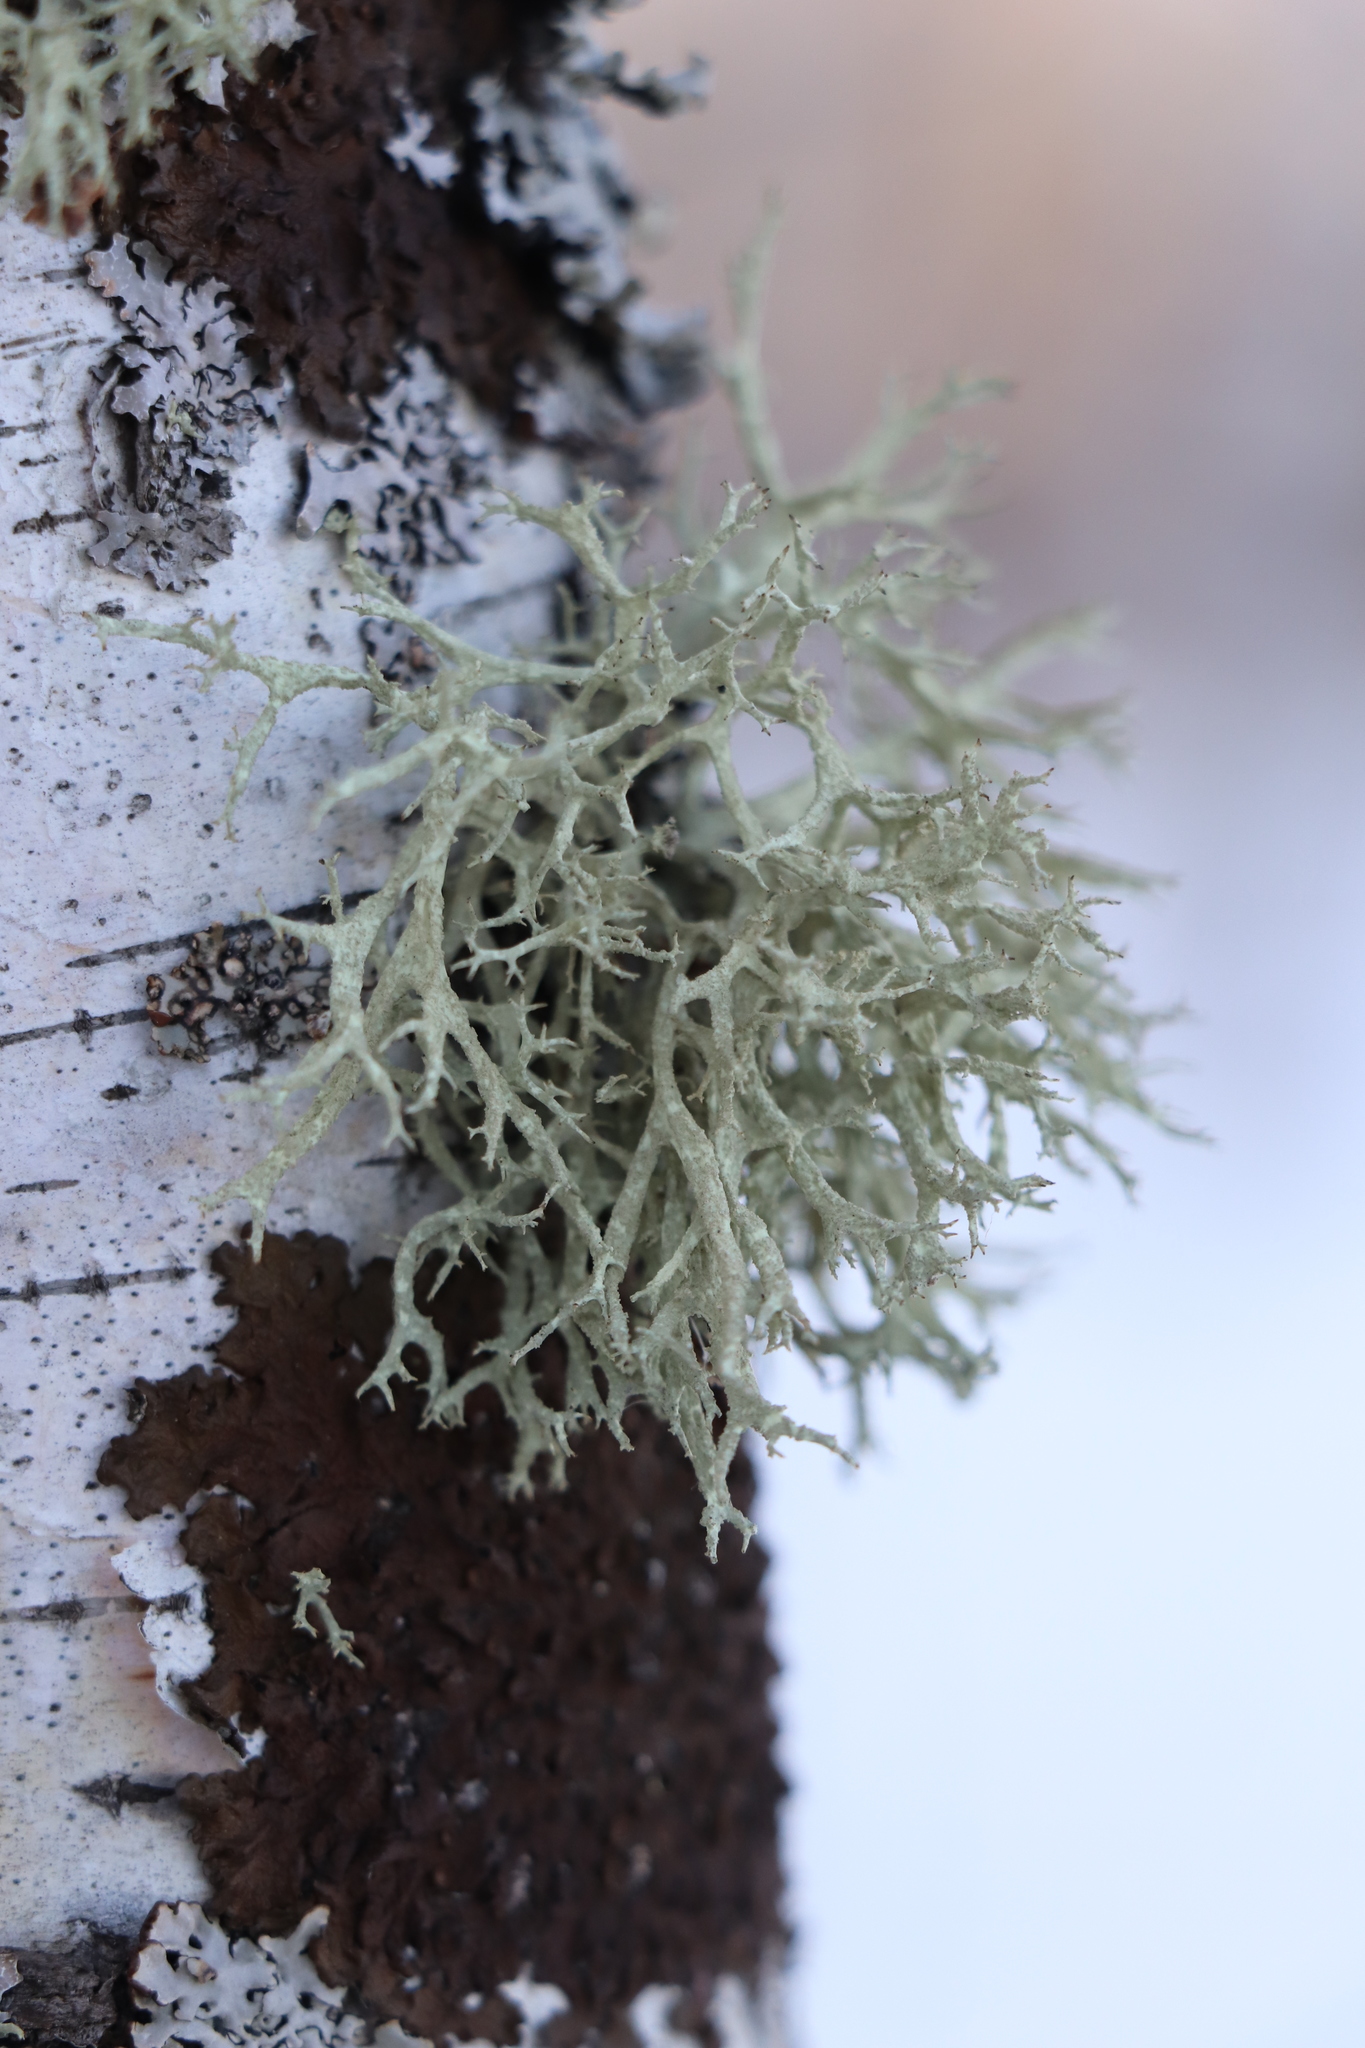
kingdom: Fungi
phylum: Ascomycota
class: Lecanoromycetes
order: Lecanorales
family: Parmeliaceae
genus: Evernia
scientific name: Evernia mesomorpha
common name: Boreal oak moss lichen
